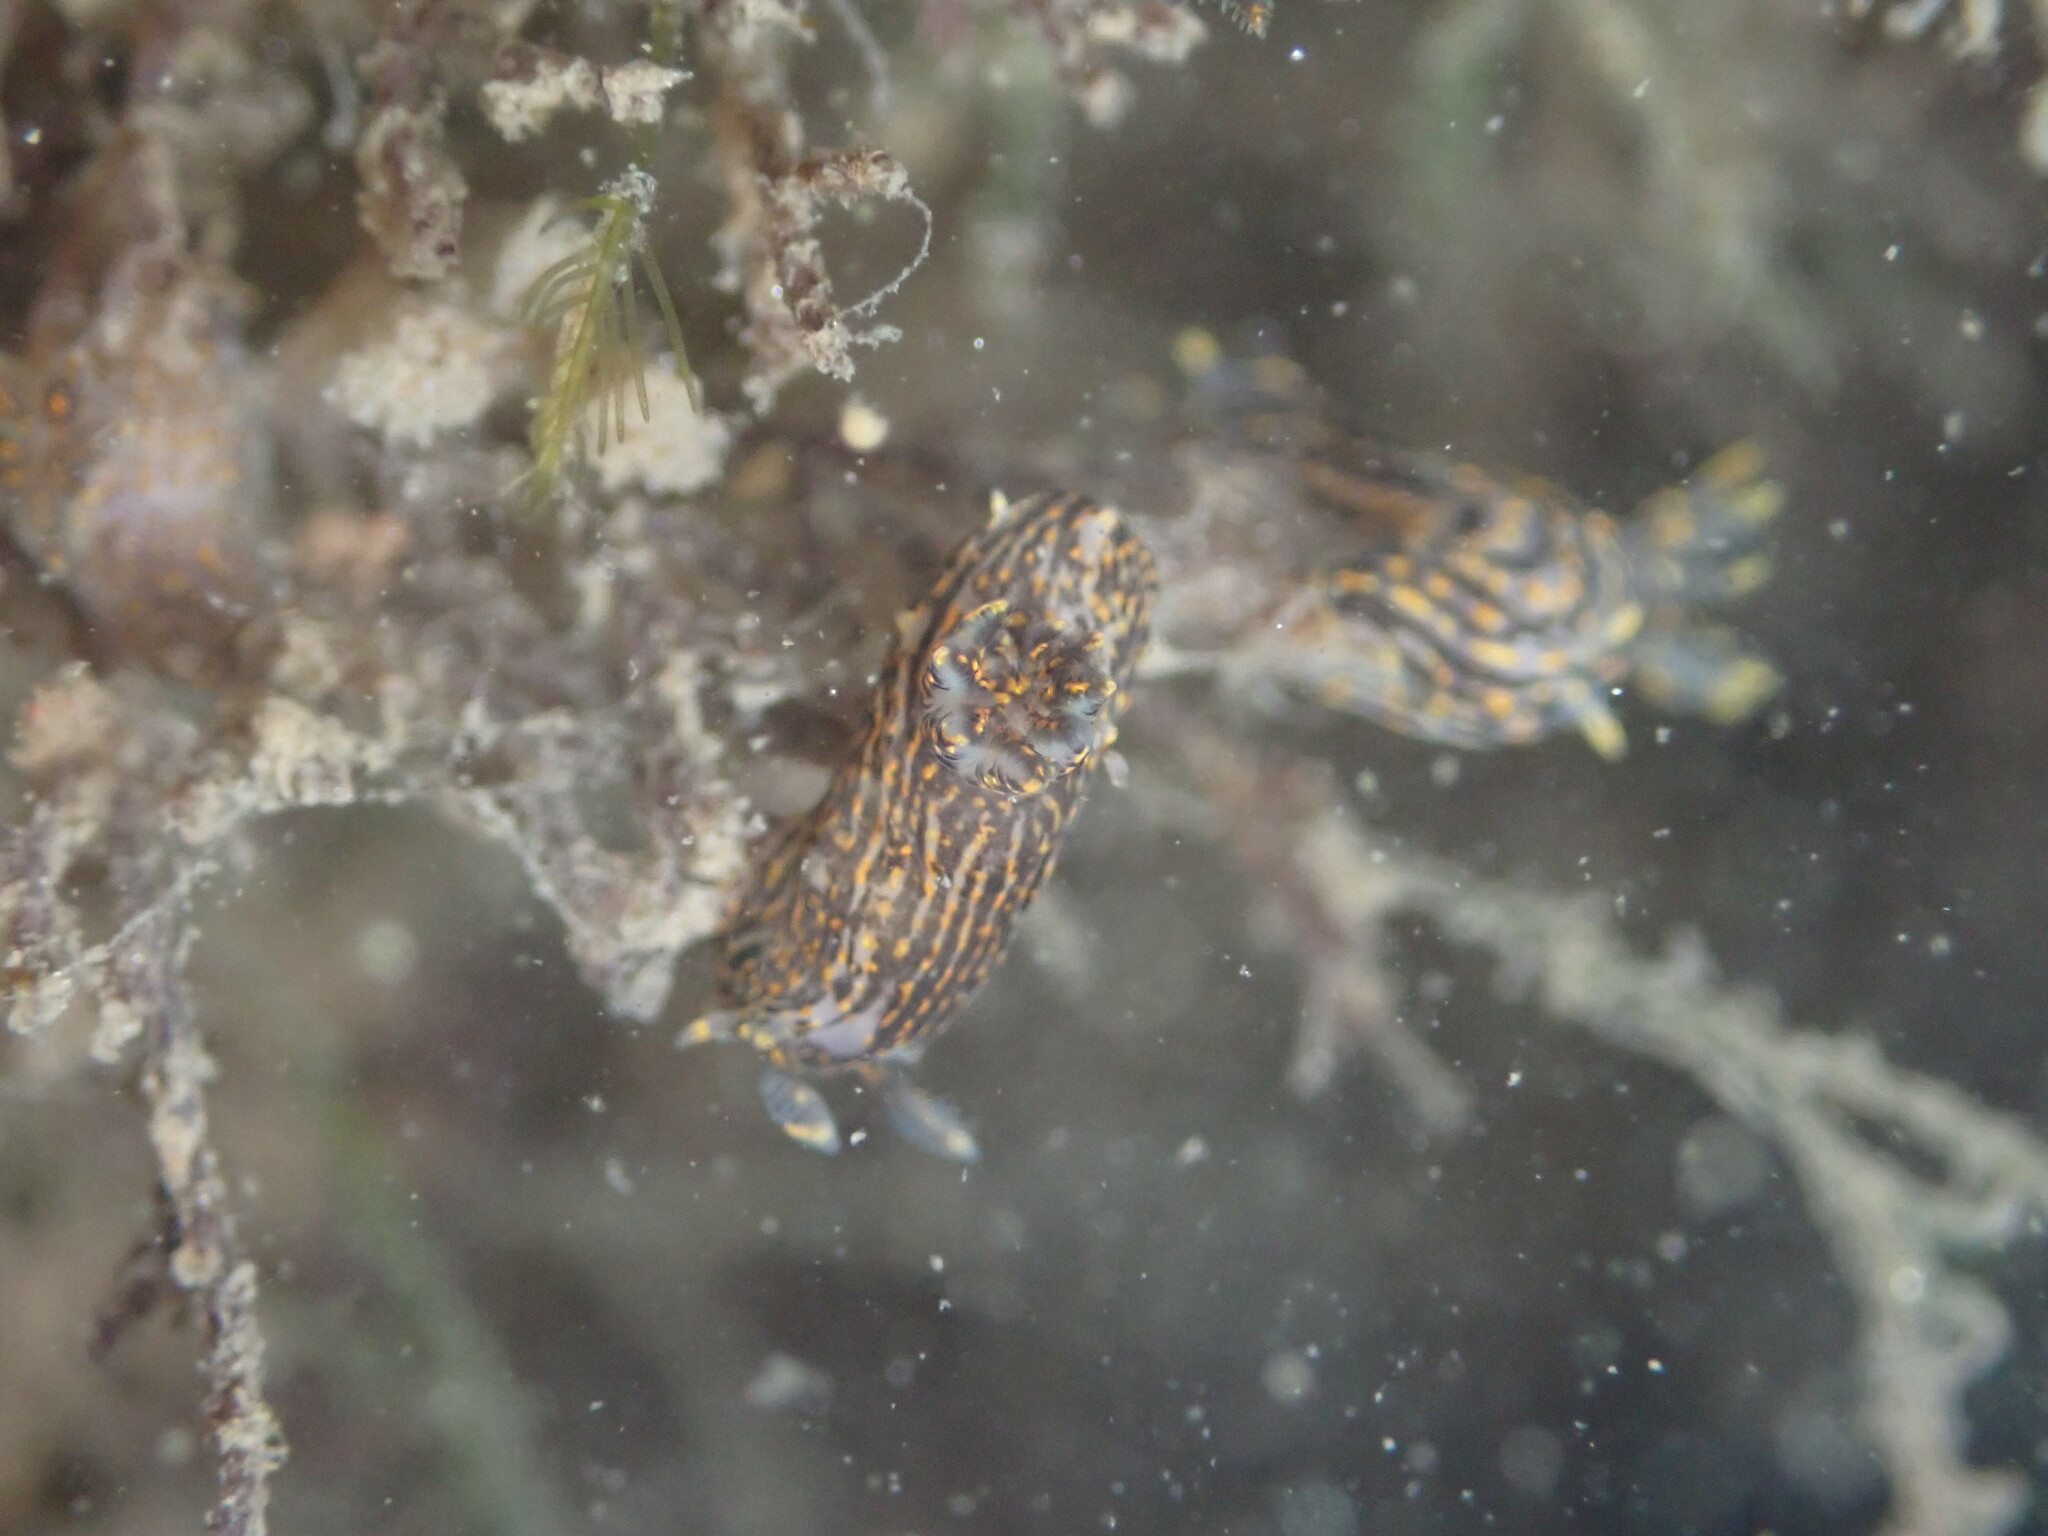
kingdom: Animalia
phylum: Mollusca
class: Gastropoda
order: Nudibranchia
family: Polyceridae
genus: Polycera
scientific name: Polycera atra
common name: Orange-spike polycera
